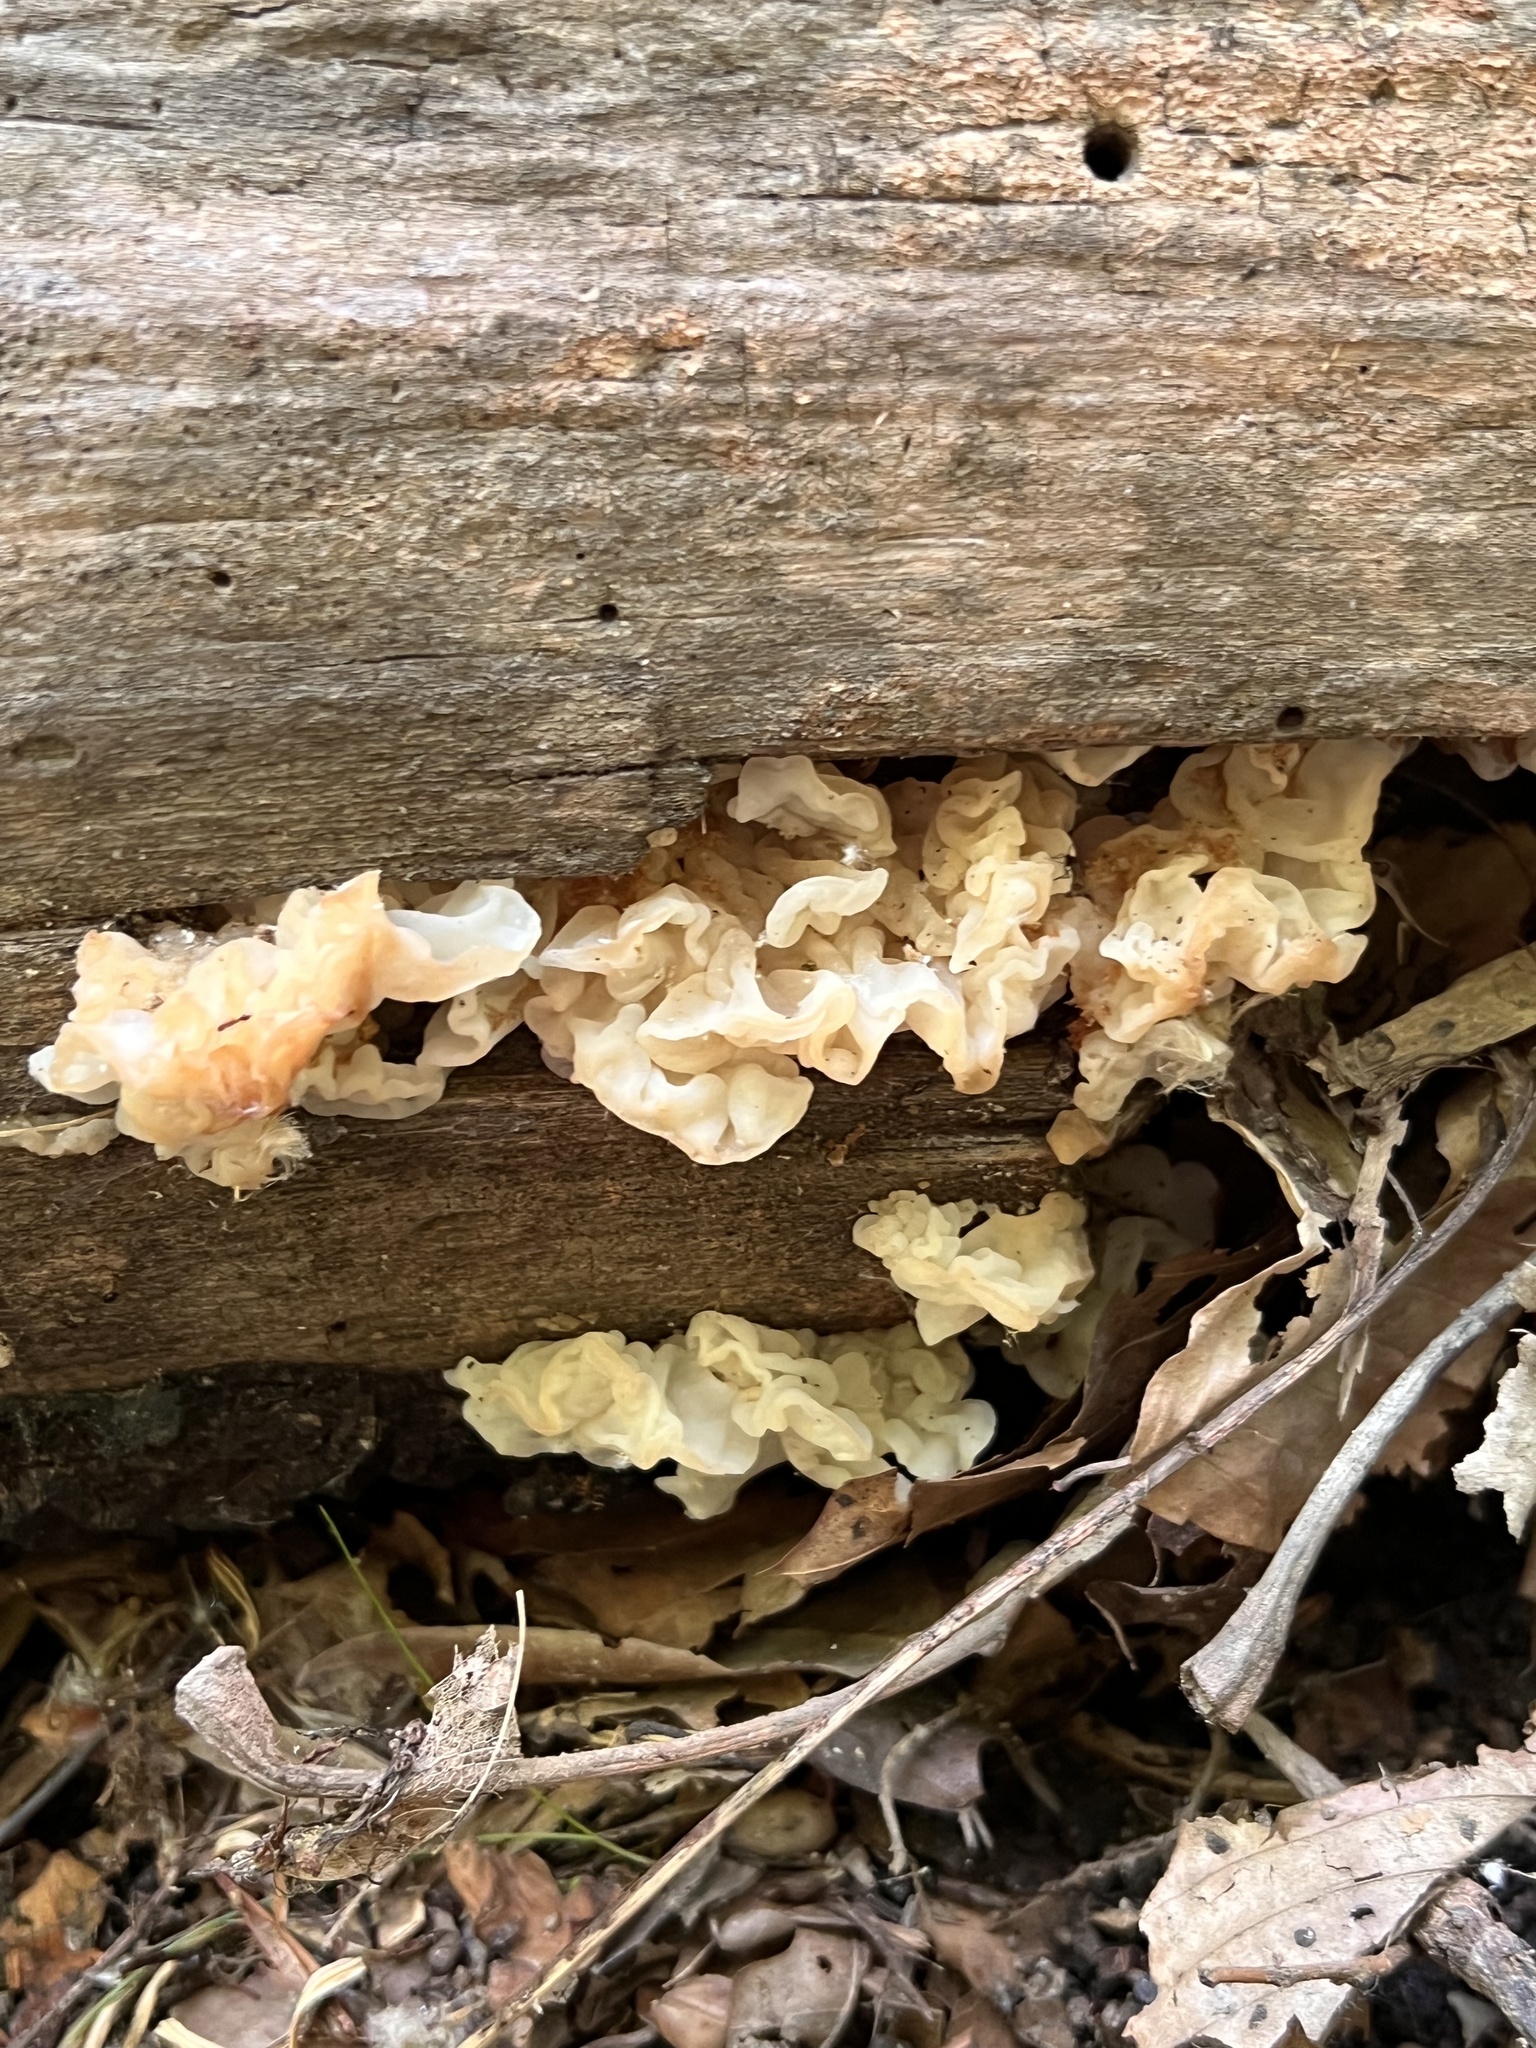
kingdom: Fungi
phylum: Basidiomycota
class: Agaricomycetes
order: Auriculariales
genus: Ductifera
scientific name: Ductifera pululahuana
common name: White jelly fungus
